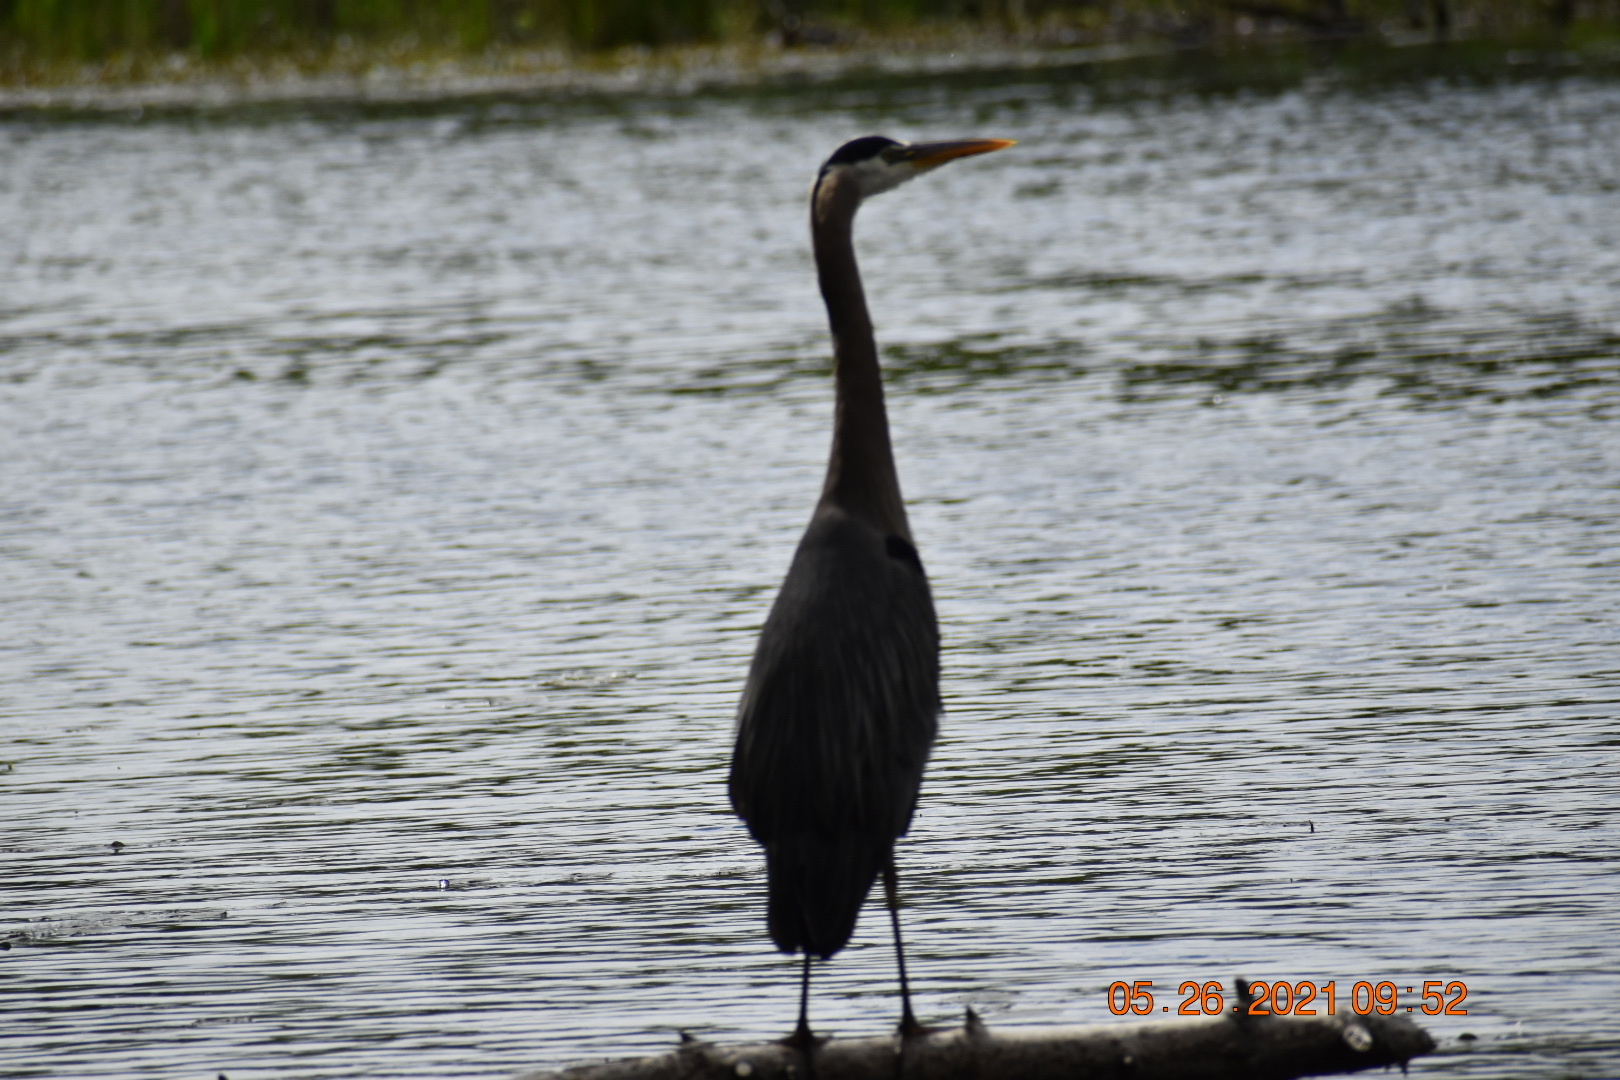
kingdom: Animalia
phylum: Chordata
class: Aves
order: Pelecaniformes
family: Ardeidae
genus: Ardea
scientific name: Ardea herodias
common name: Great blue heron
